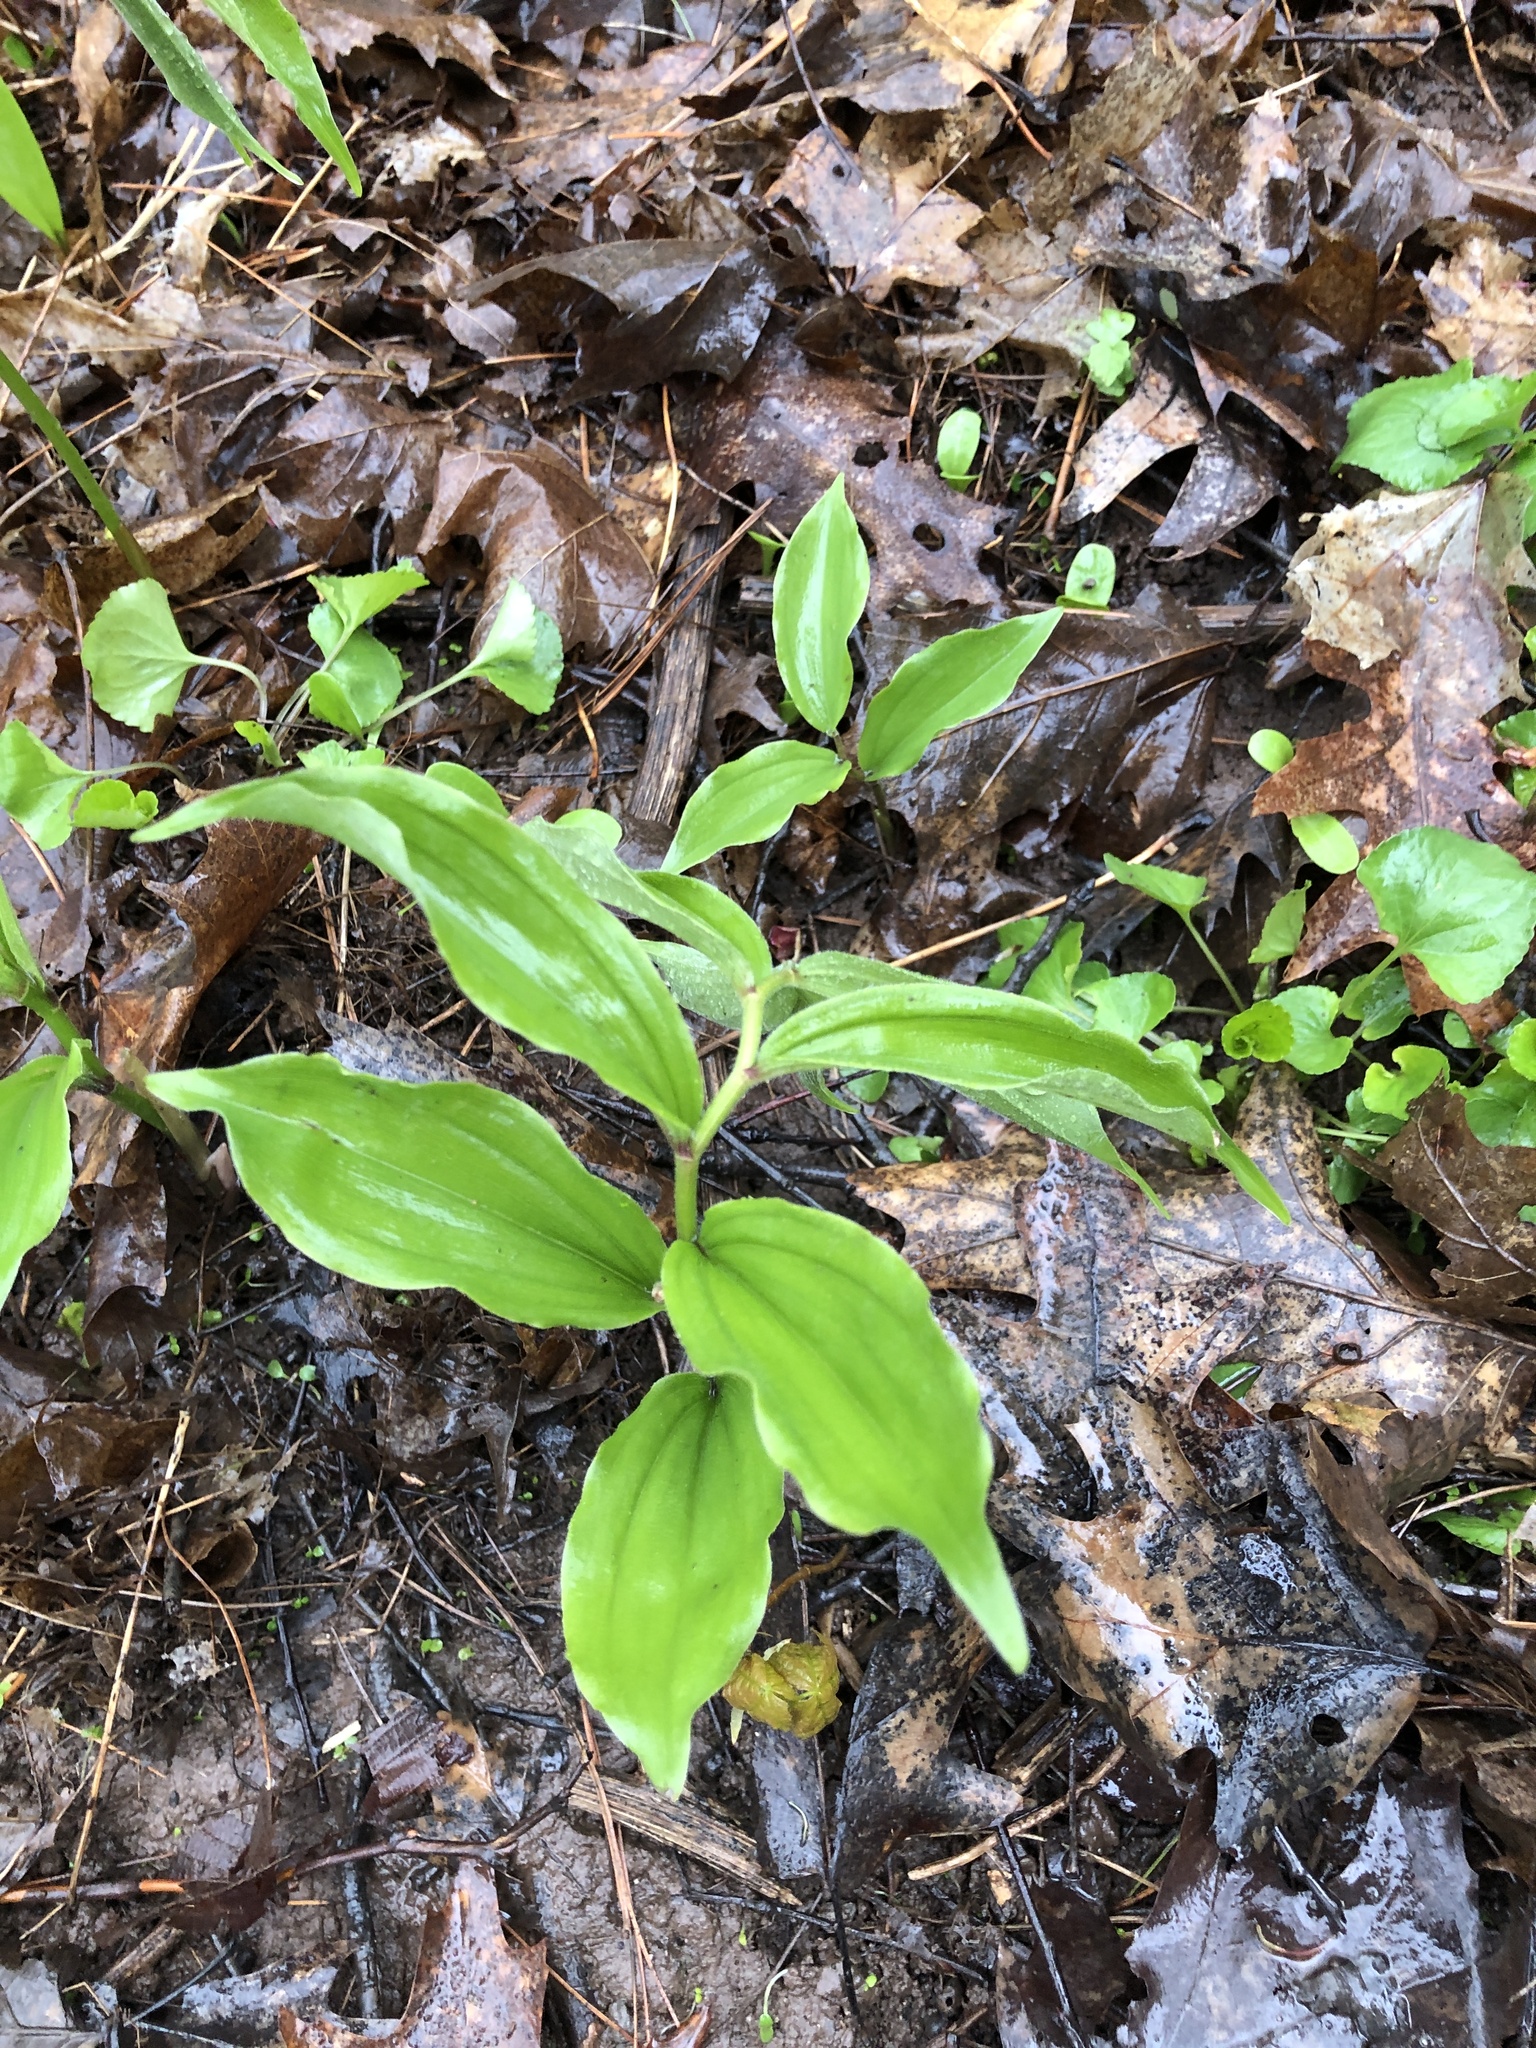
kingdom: Plantae
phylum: Tracheophyta
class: Liliopsida
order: Asparagales
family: Asparagaceae
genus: Maianthemum
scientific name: Maianthemum racemosum
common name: False spikenard
